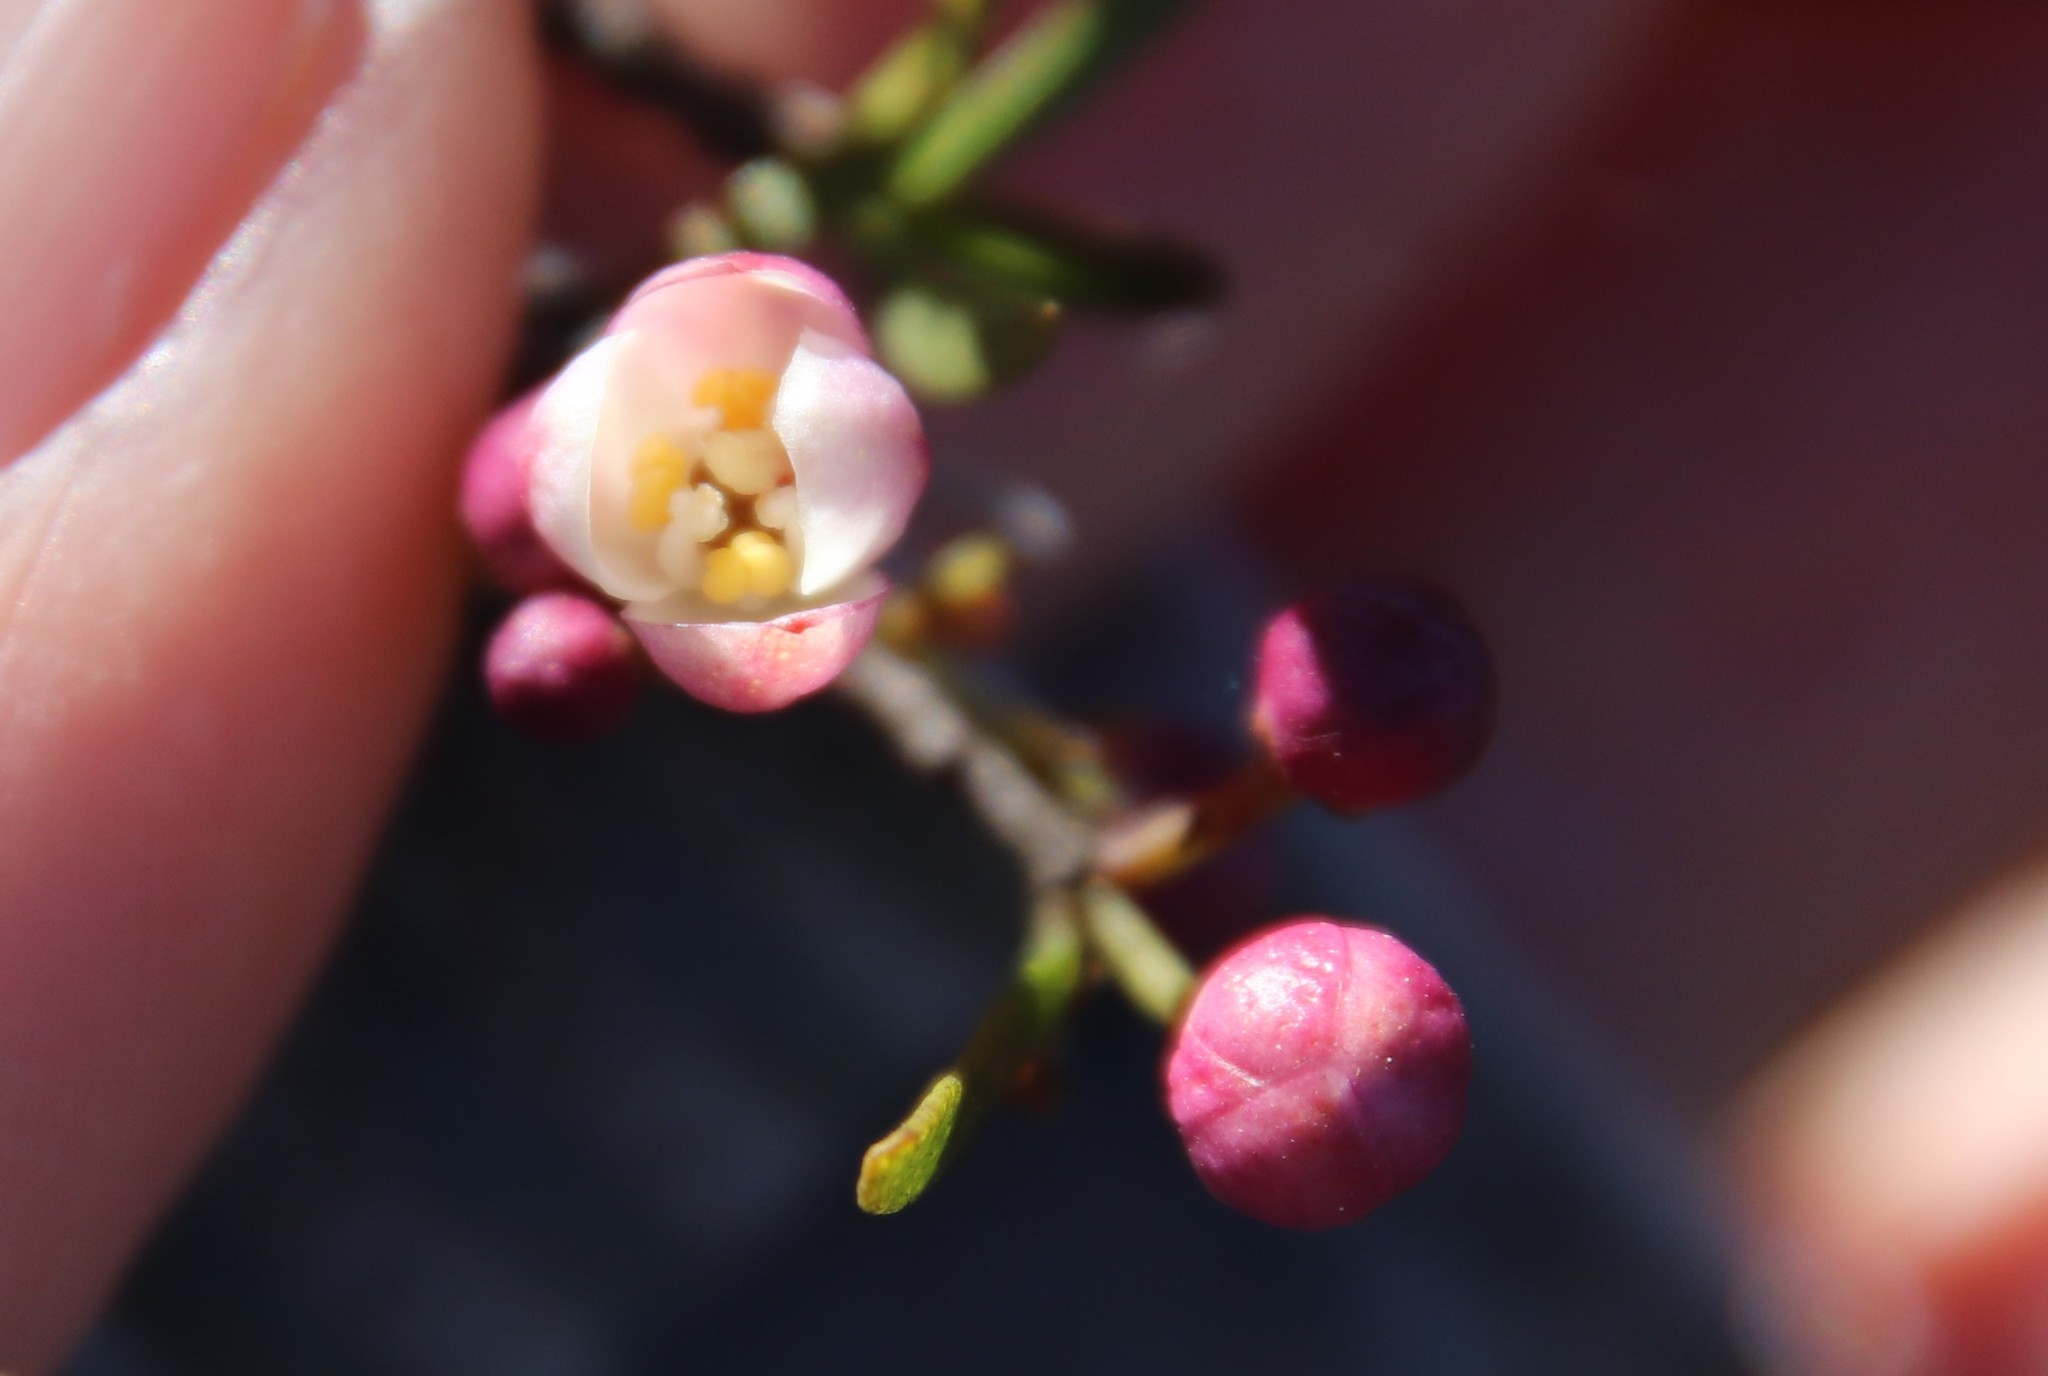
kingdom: Plantae
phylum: Tracheophyta
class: Magnoliopsida
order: Sapindales
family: Rutaceae
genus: Cneoridium
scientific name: Cneoridium dumosum
